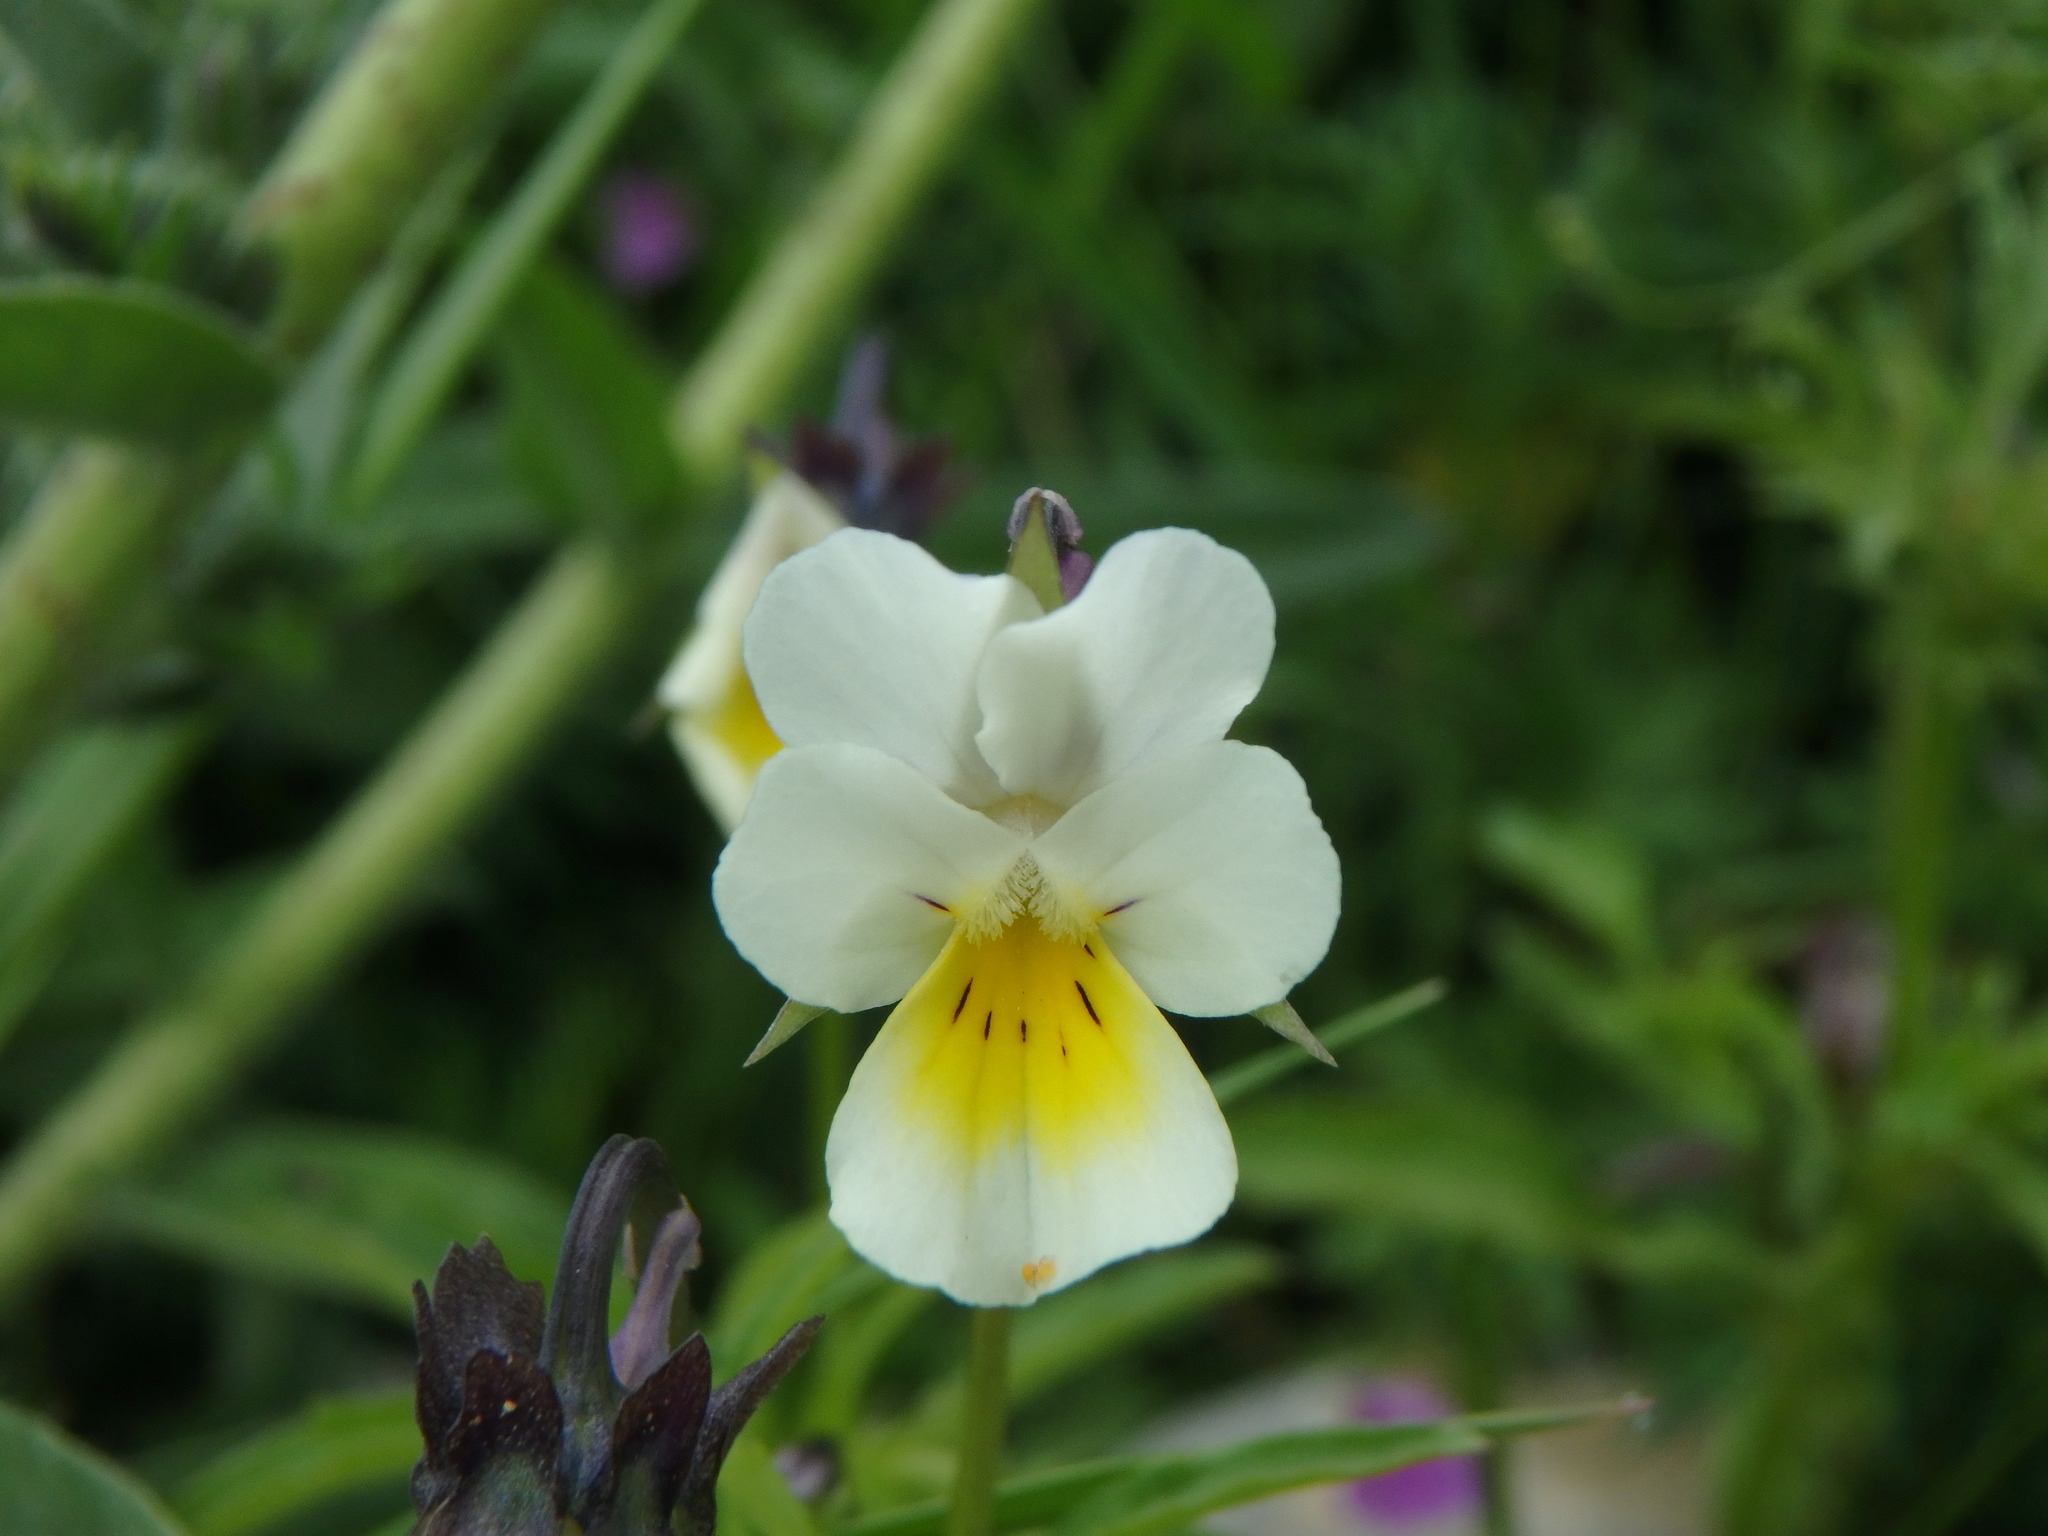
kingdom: Plantae
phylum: Tracheophyta
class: Magnoliopsida
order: Malpighiales
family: Violaceae
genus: Viola
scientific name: Viola arvensis
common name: Field pansy
